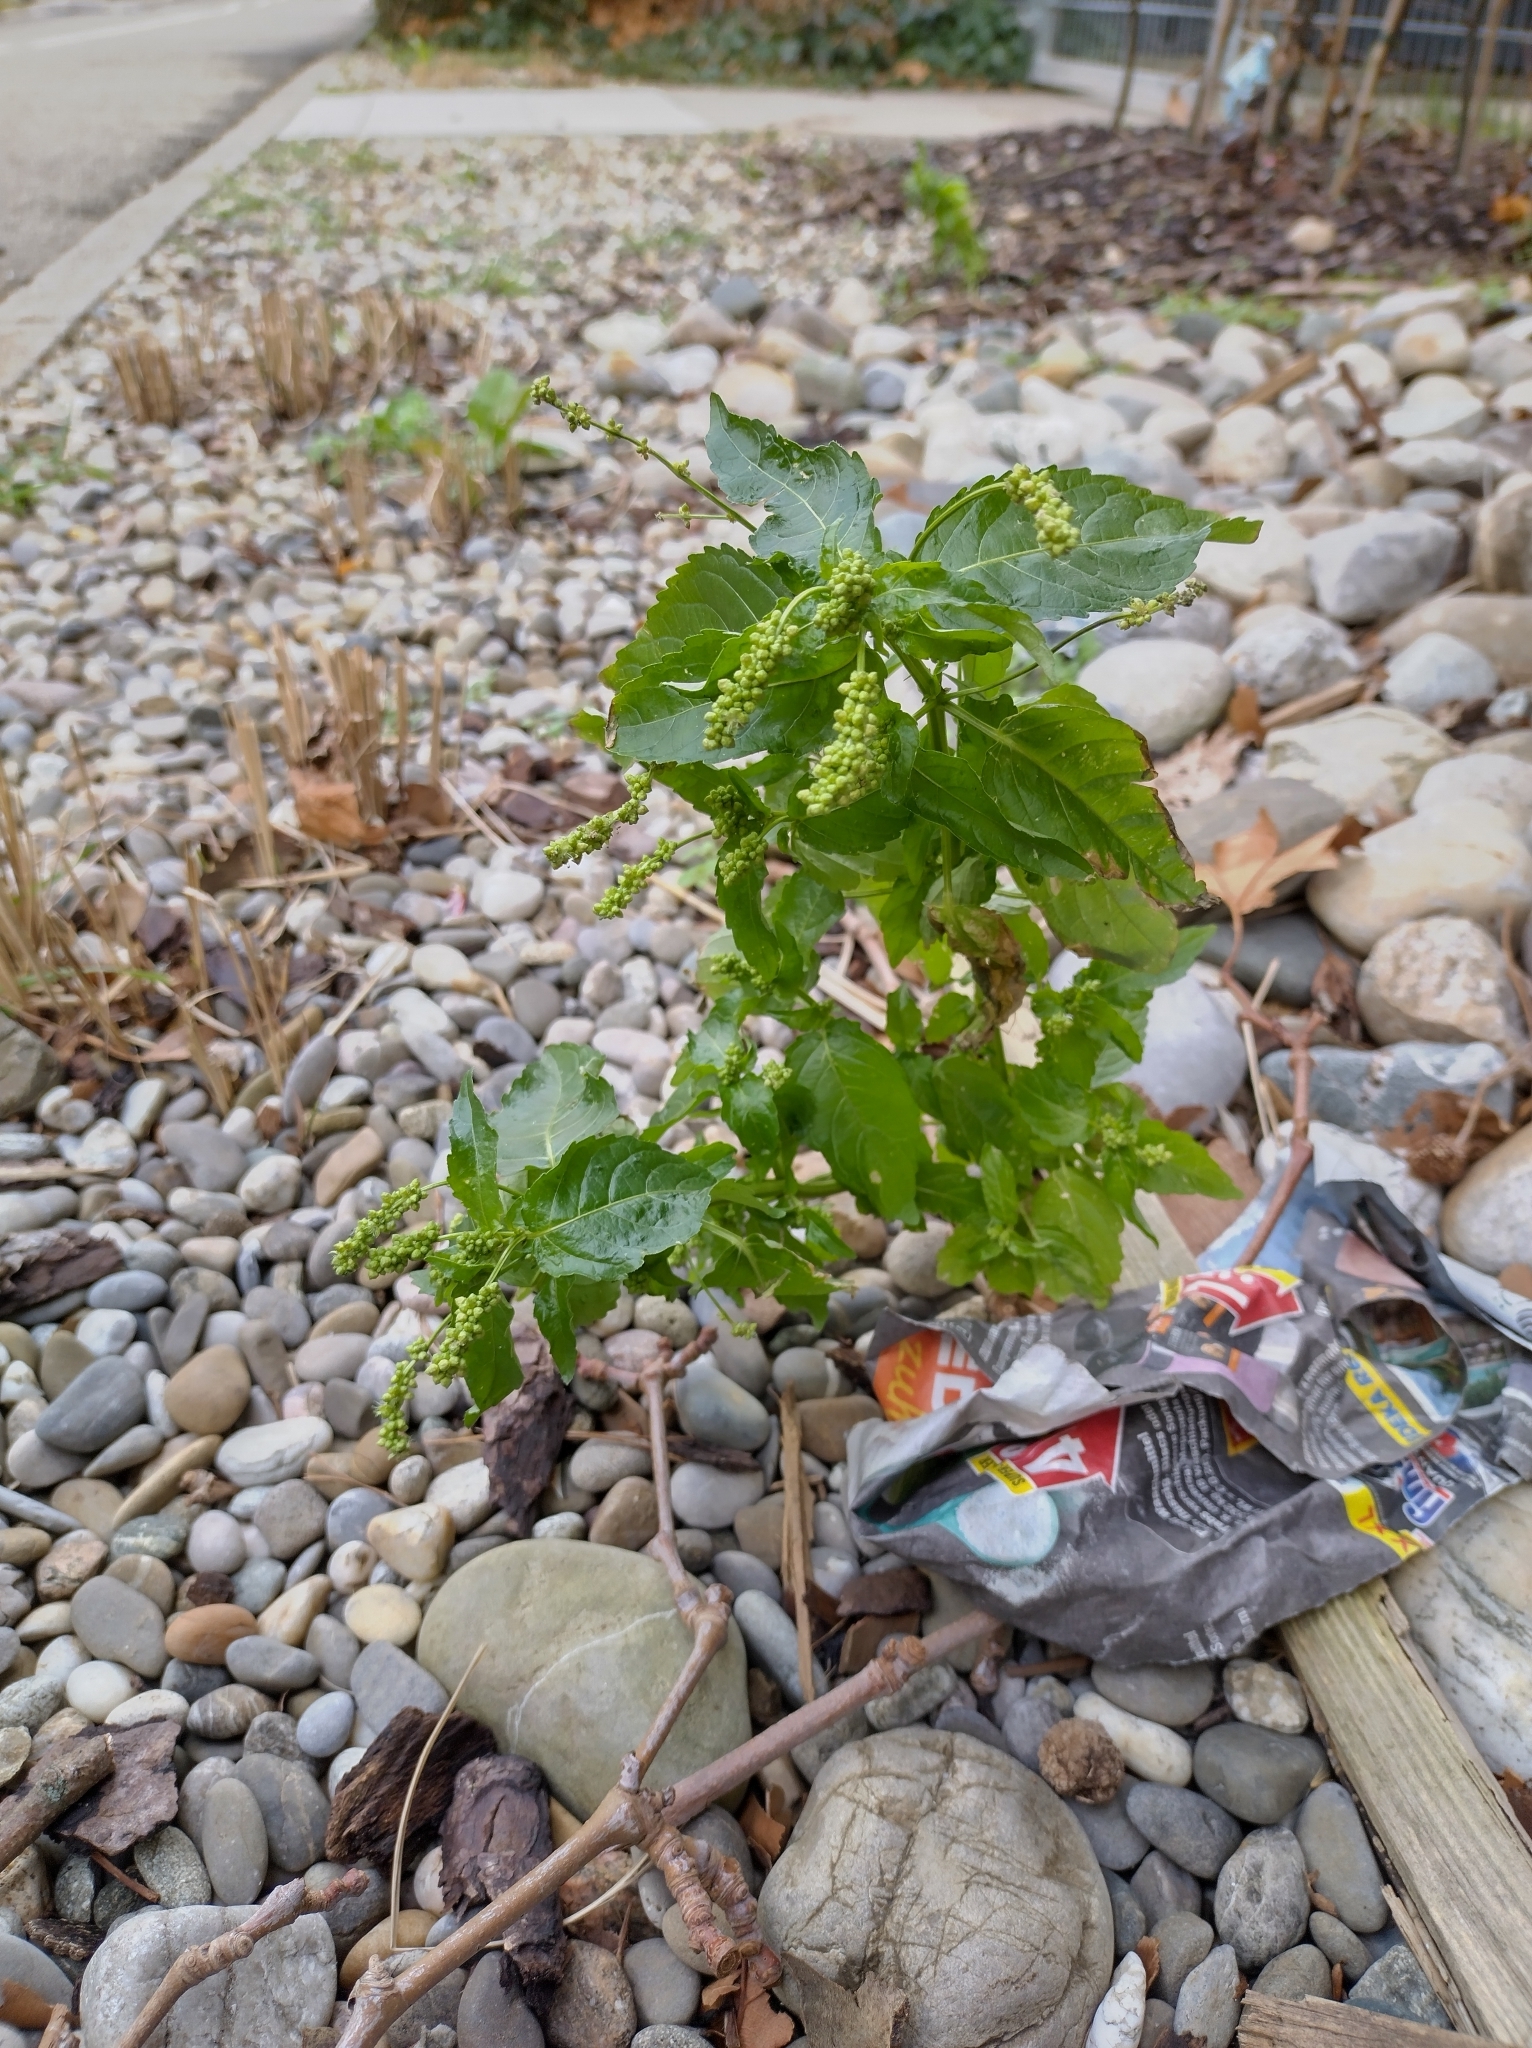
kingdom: Plantae
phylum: Tracheophyta
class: Magnoliopsida
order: Malpighiales
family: Euphorbiaceae
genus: Mercurialis
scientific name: Mercurialis annua
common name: Annual mercury
